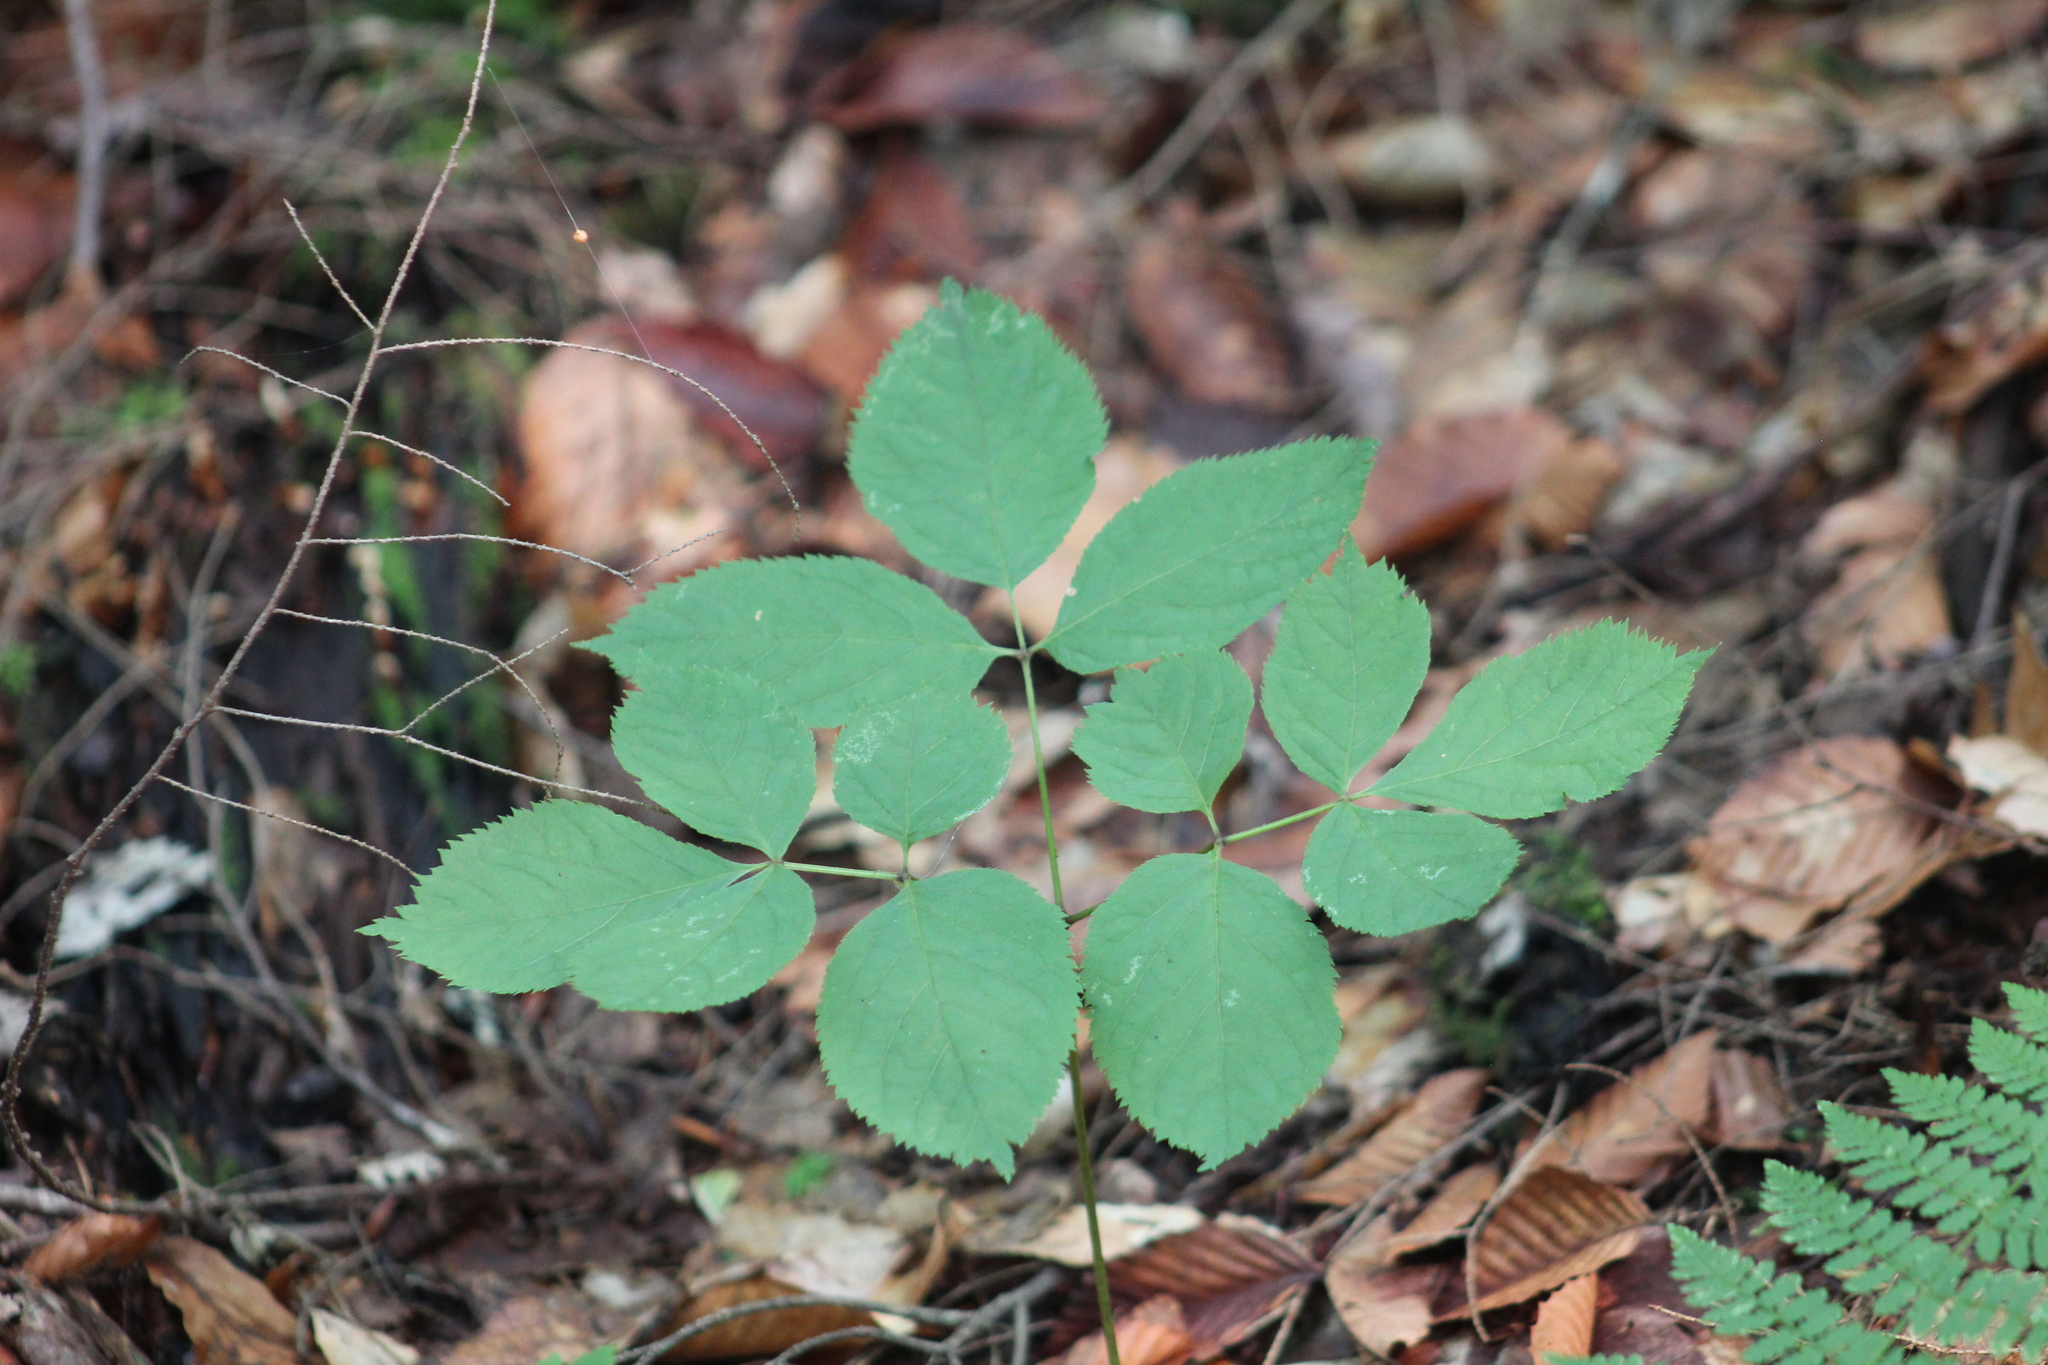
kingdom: Plantae
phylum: Tracheophyta
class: Magnoliopsida
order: Apiales
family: Araliaceae
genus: Aralia
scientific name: Aralia nudicaulis
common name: Wild sarsaparilla
